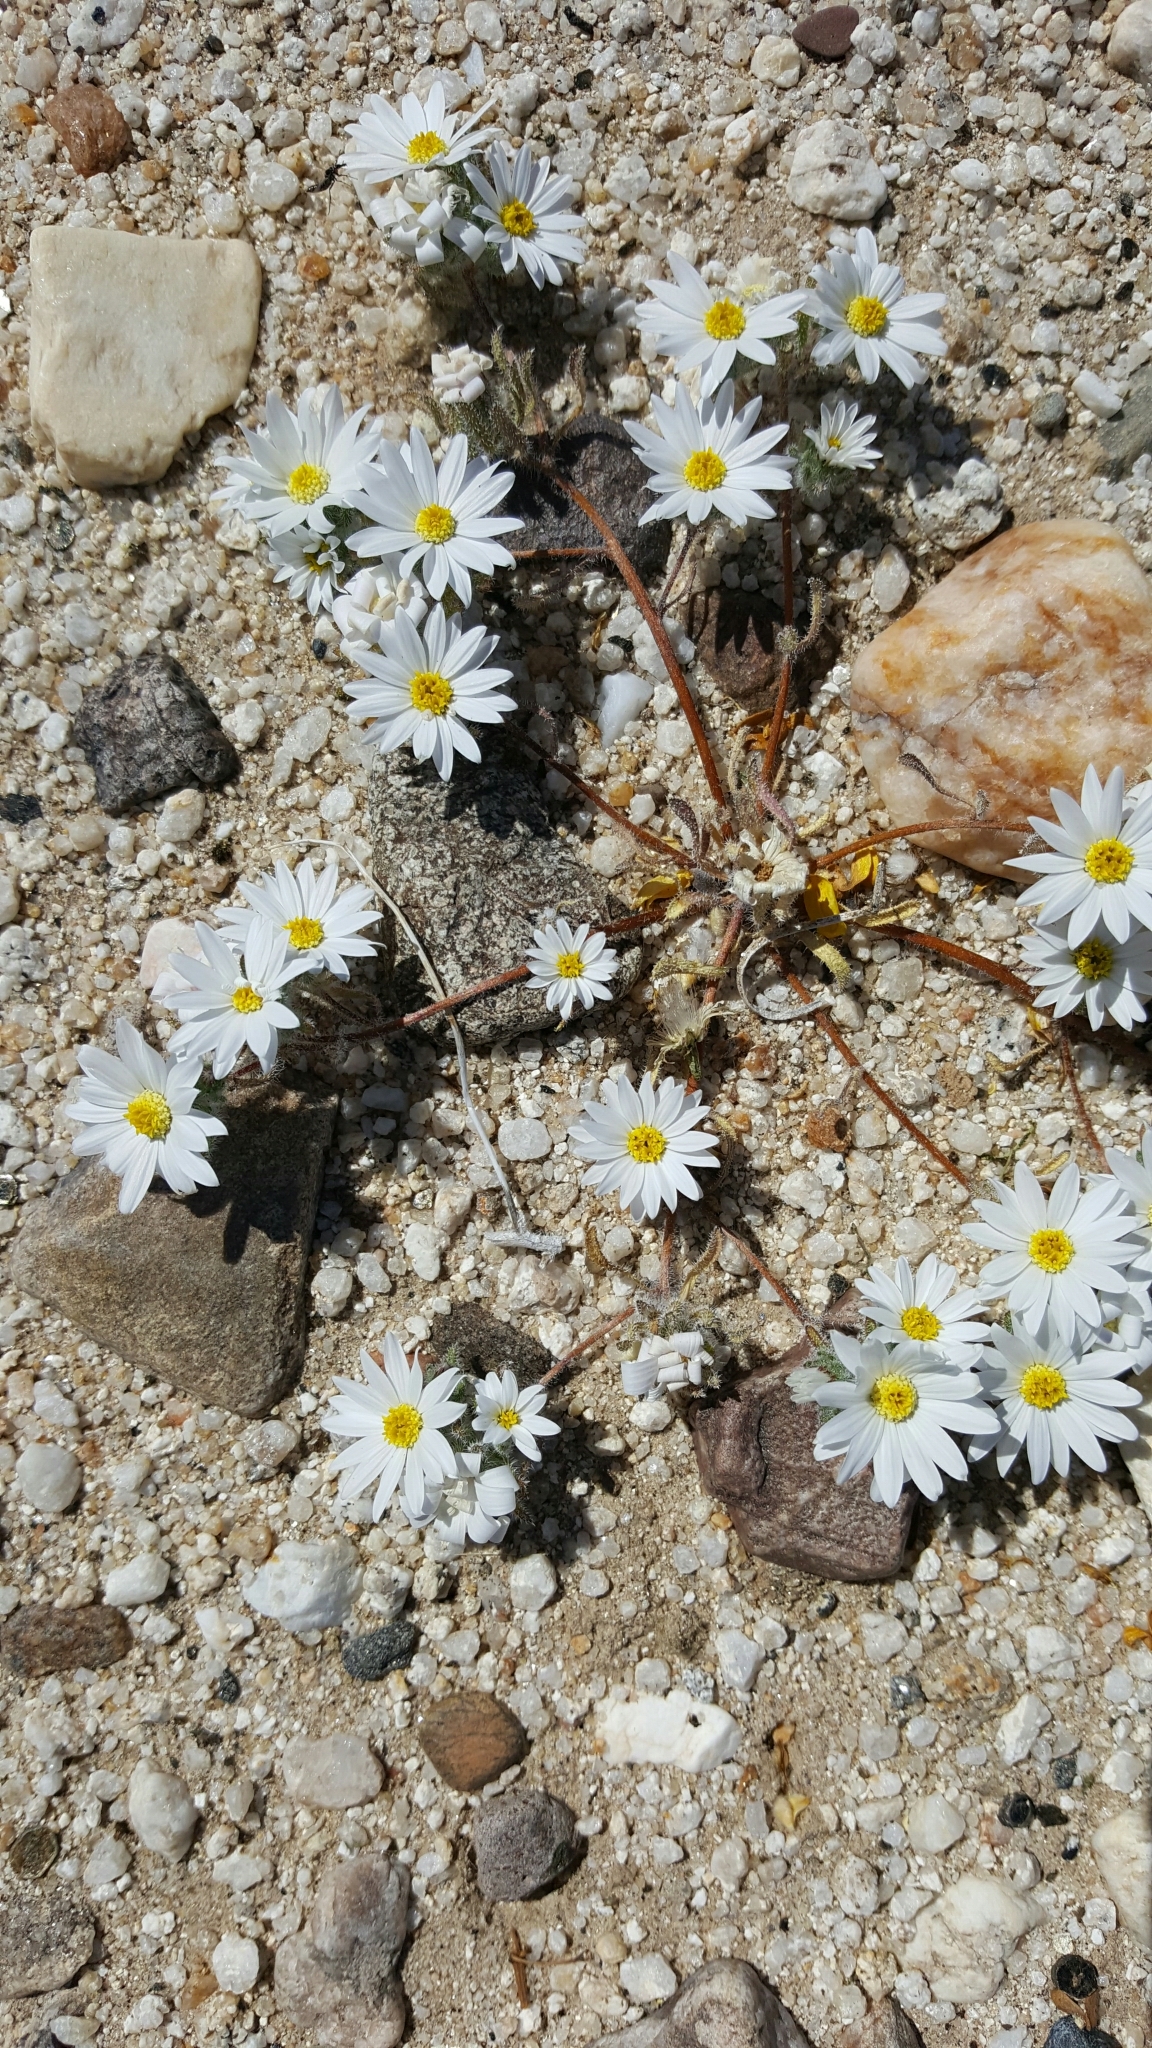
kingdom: Plantae
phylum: Tracheophyta
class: Magnoliopsida
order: Asterales
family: Asteraceae
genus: Monoptilon
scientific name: Monoptilon bellioides
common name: Bristly desertstar
